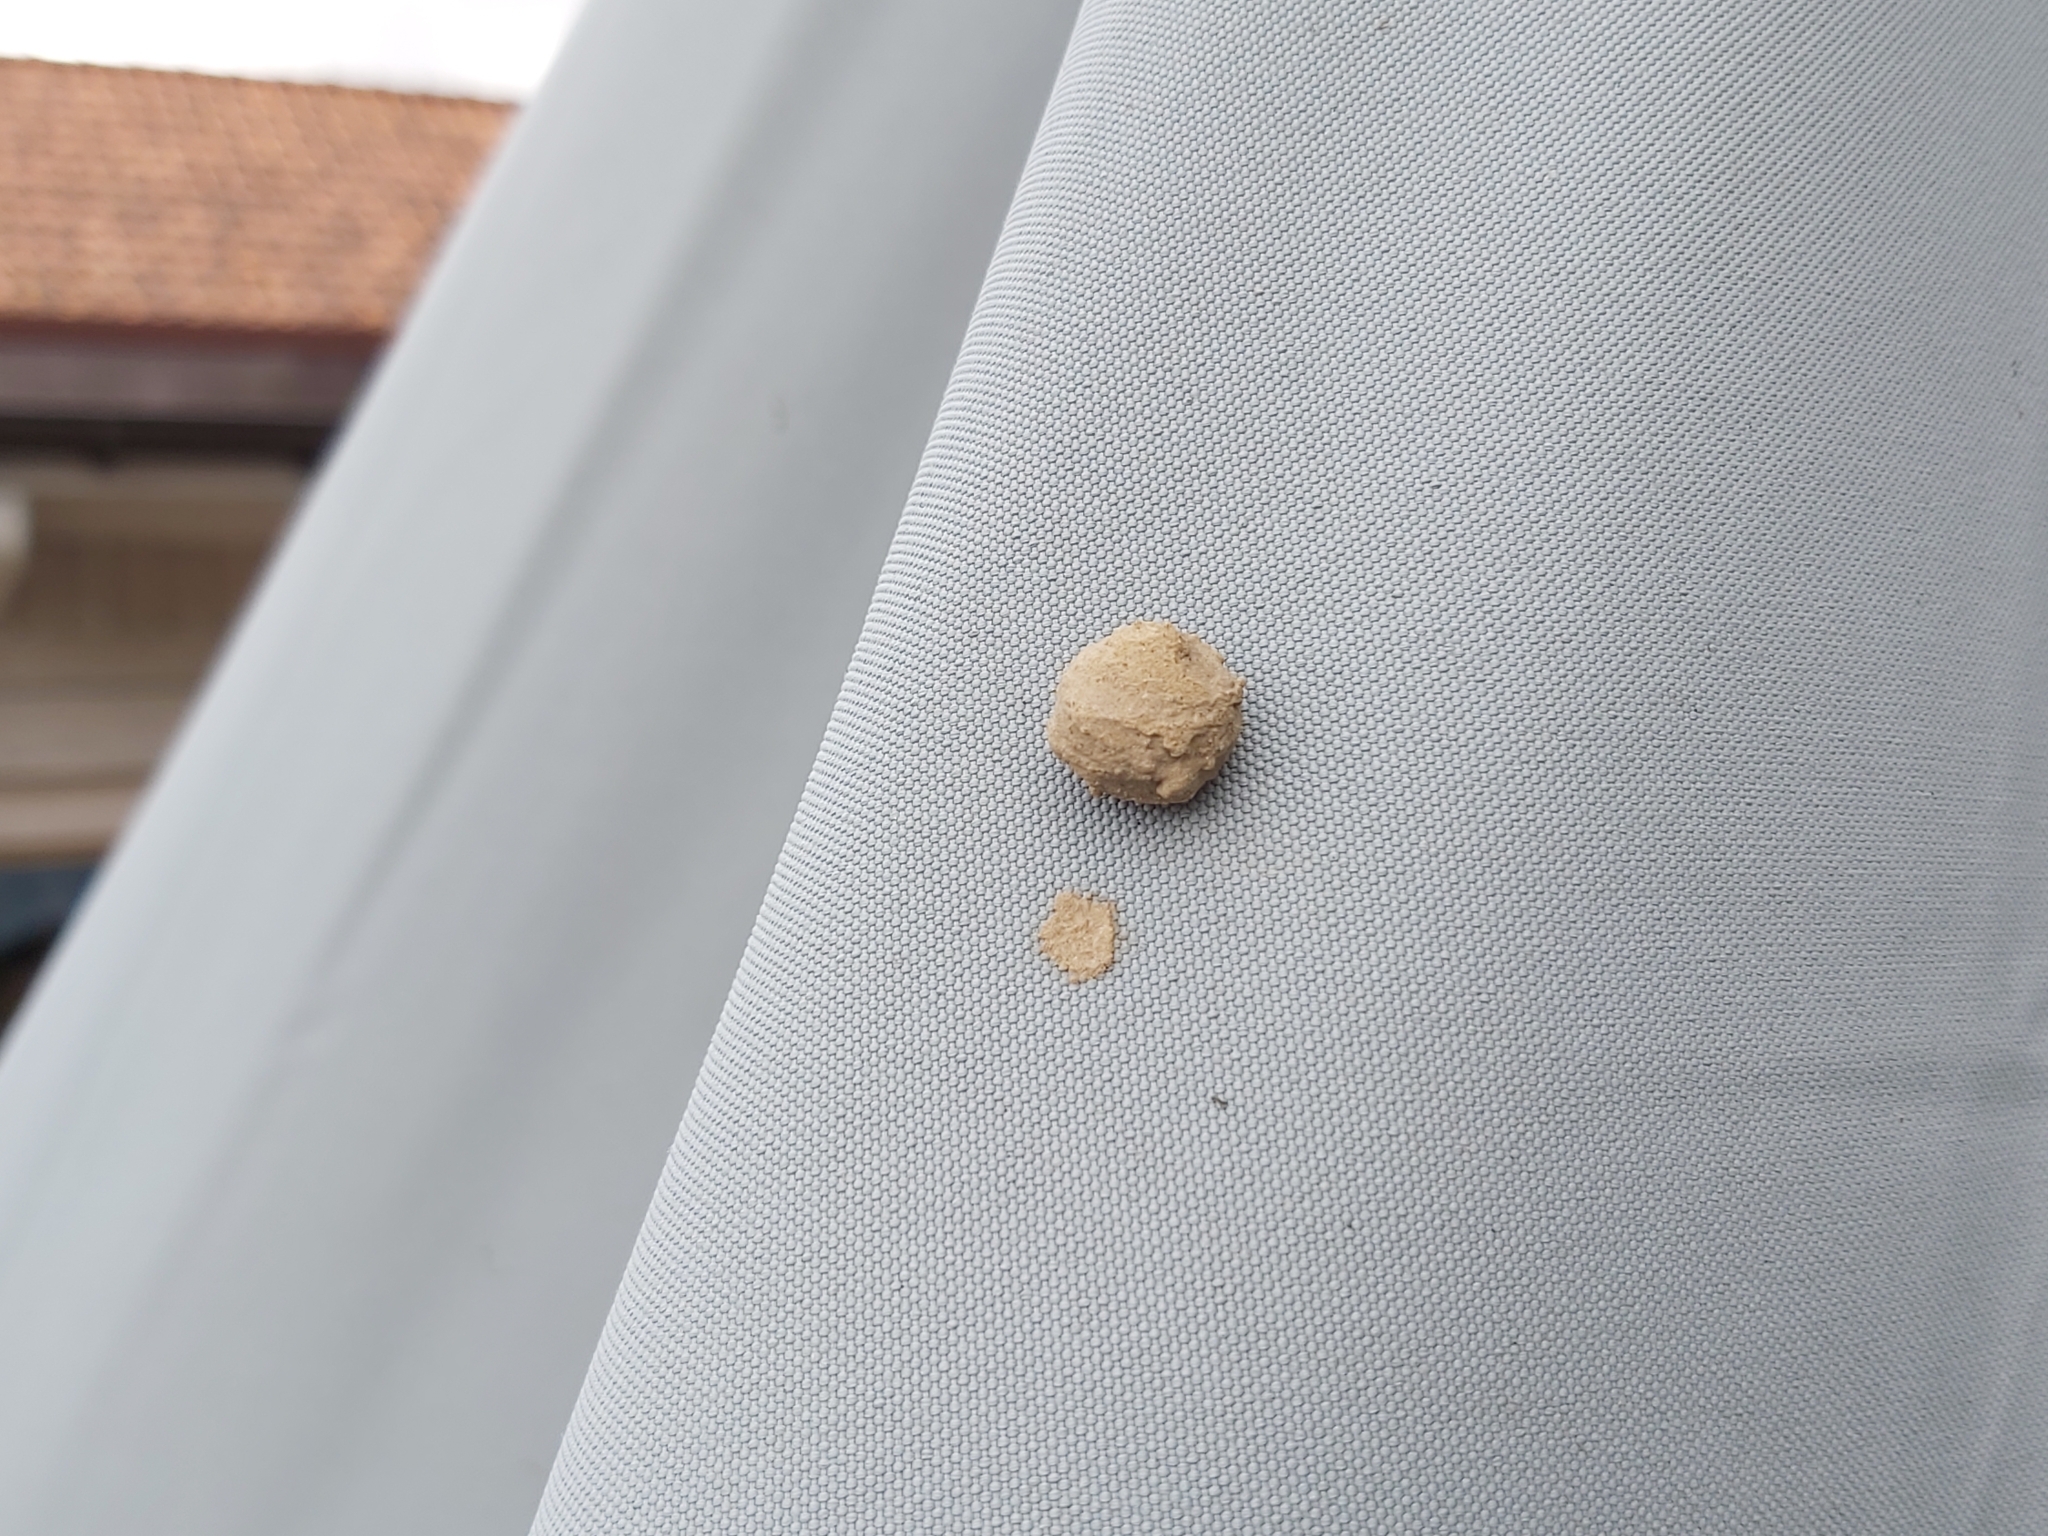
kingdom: Animalia
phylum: Arthropoda
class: Insecta
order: Hymenoptera
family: Vespidae
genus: Eumenes
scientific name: Eumenes
